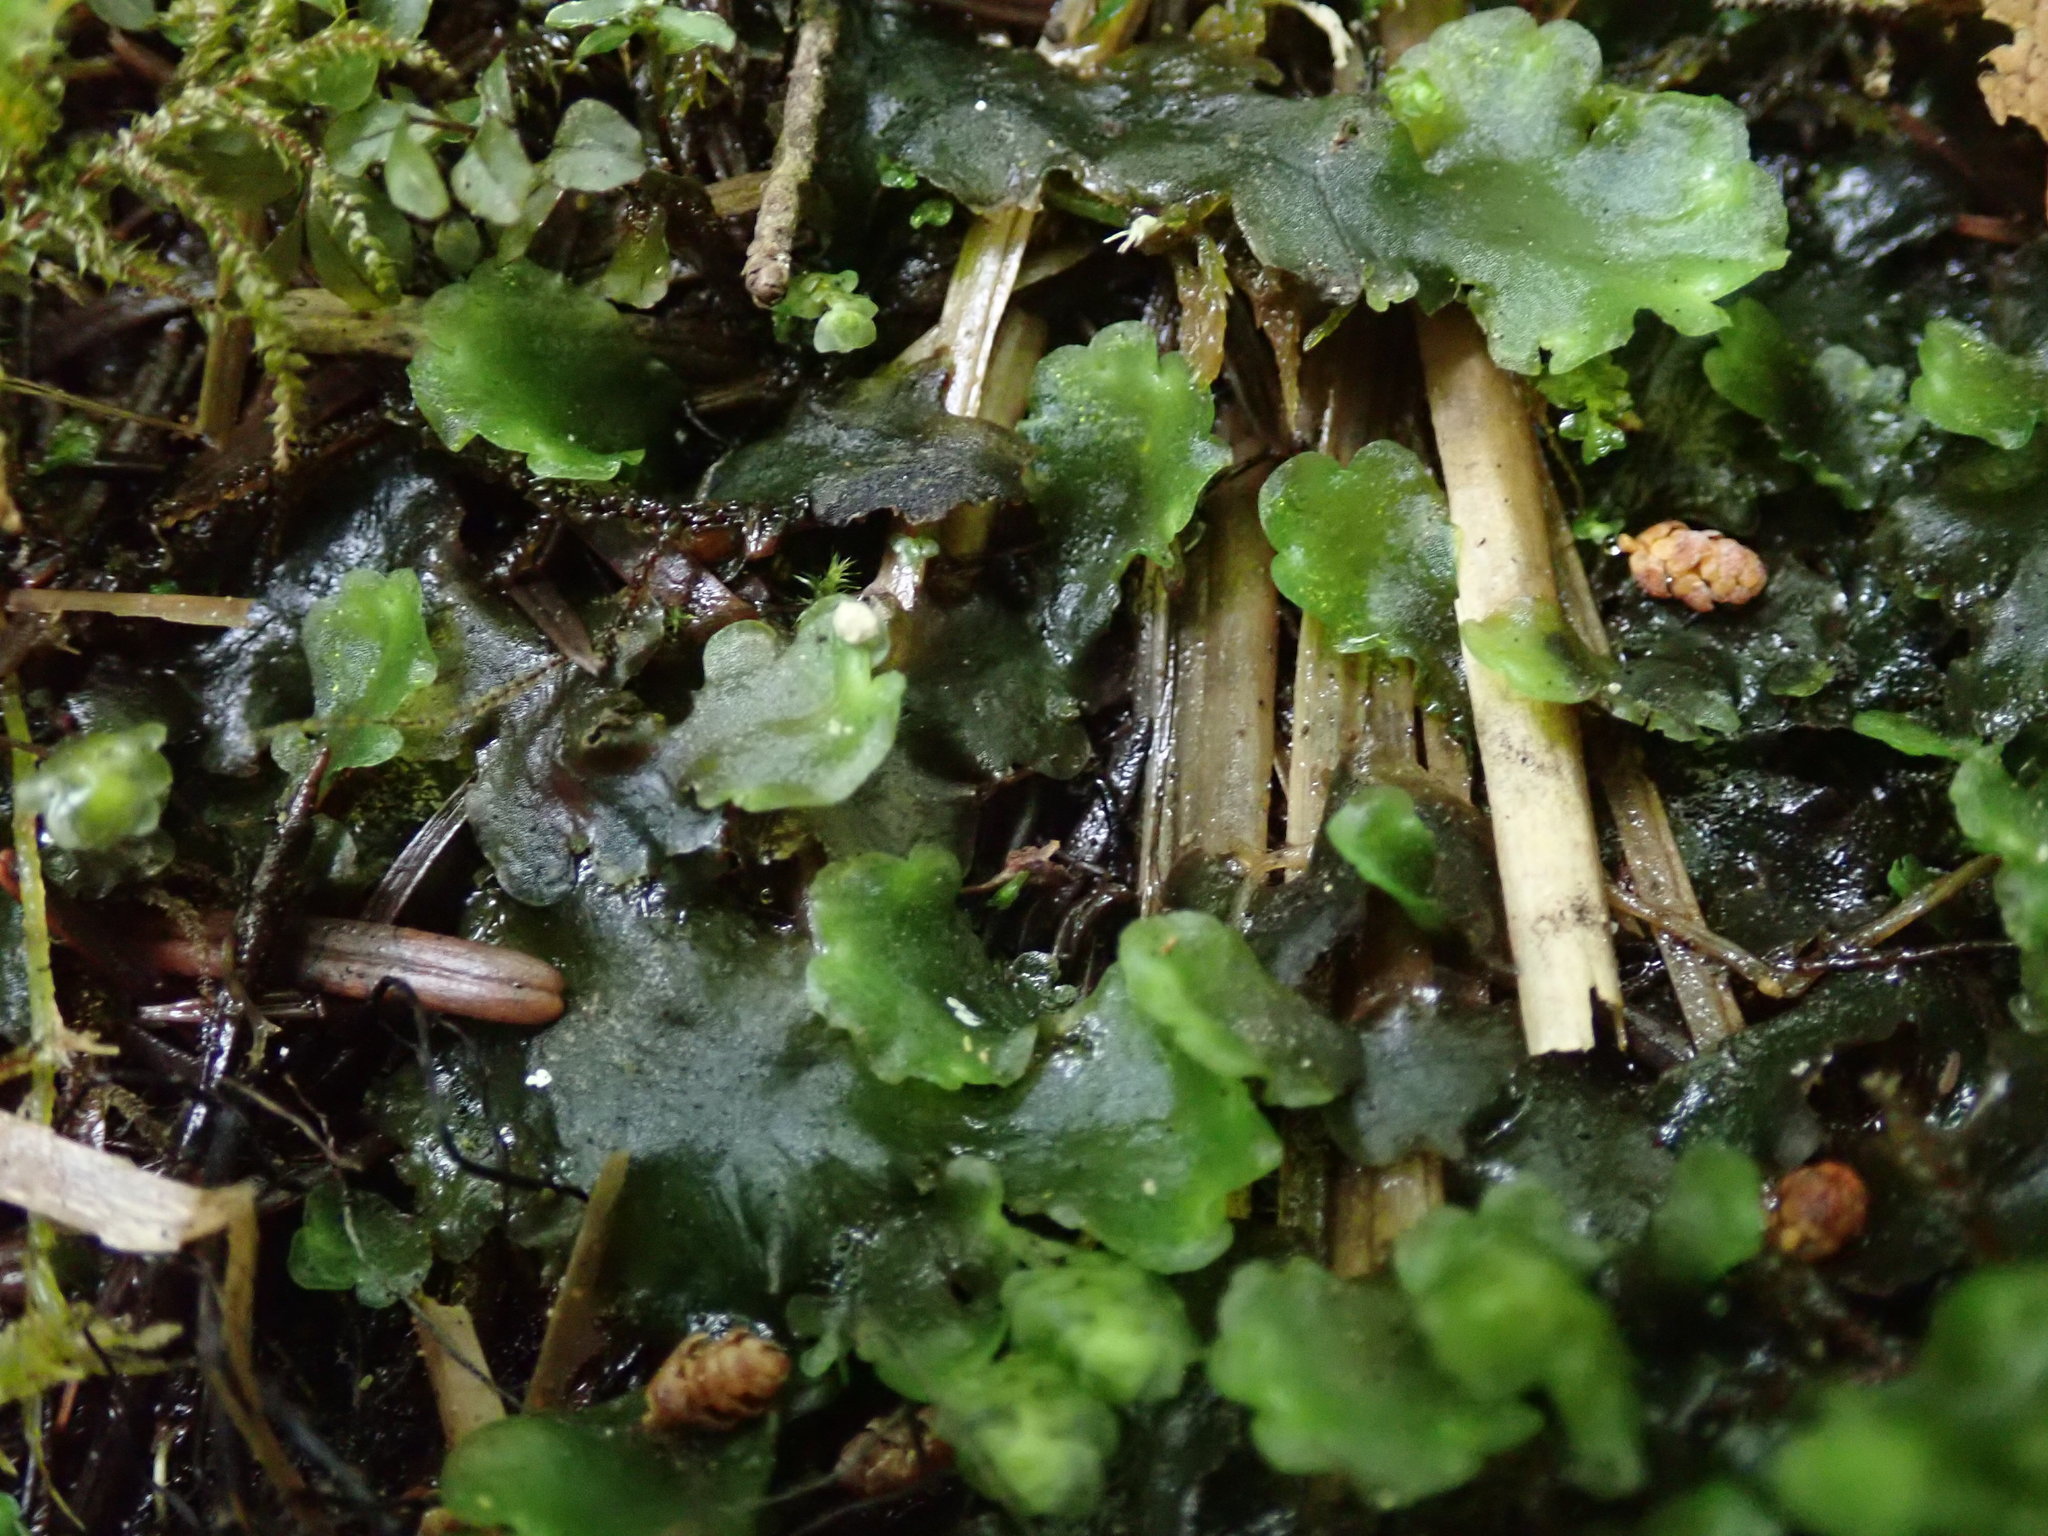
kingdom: Plantae
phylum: Marchantiophyta
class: Jungermanniopsida
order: Pelliales
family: Pelliaceae
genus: Pellia
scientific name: Pellia neesiana
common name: Nees  pellia
